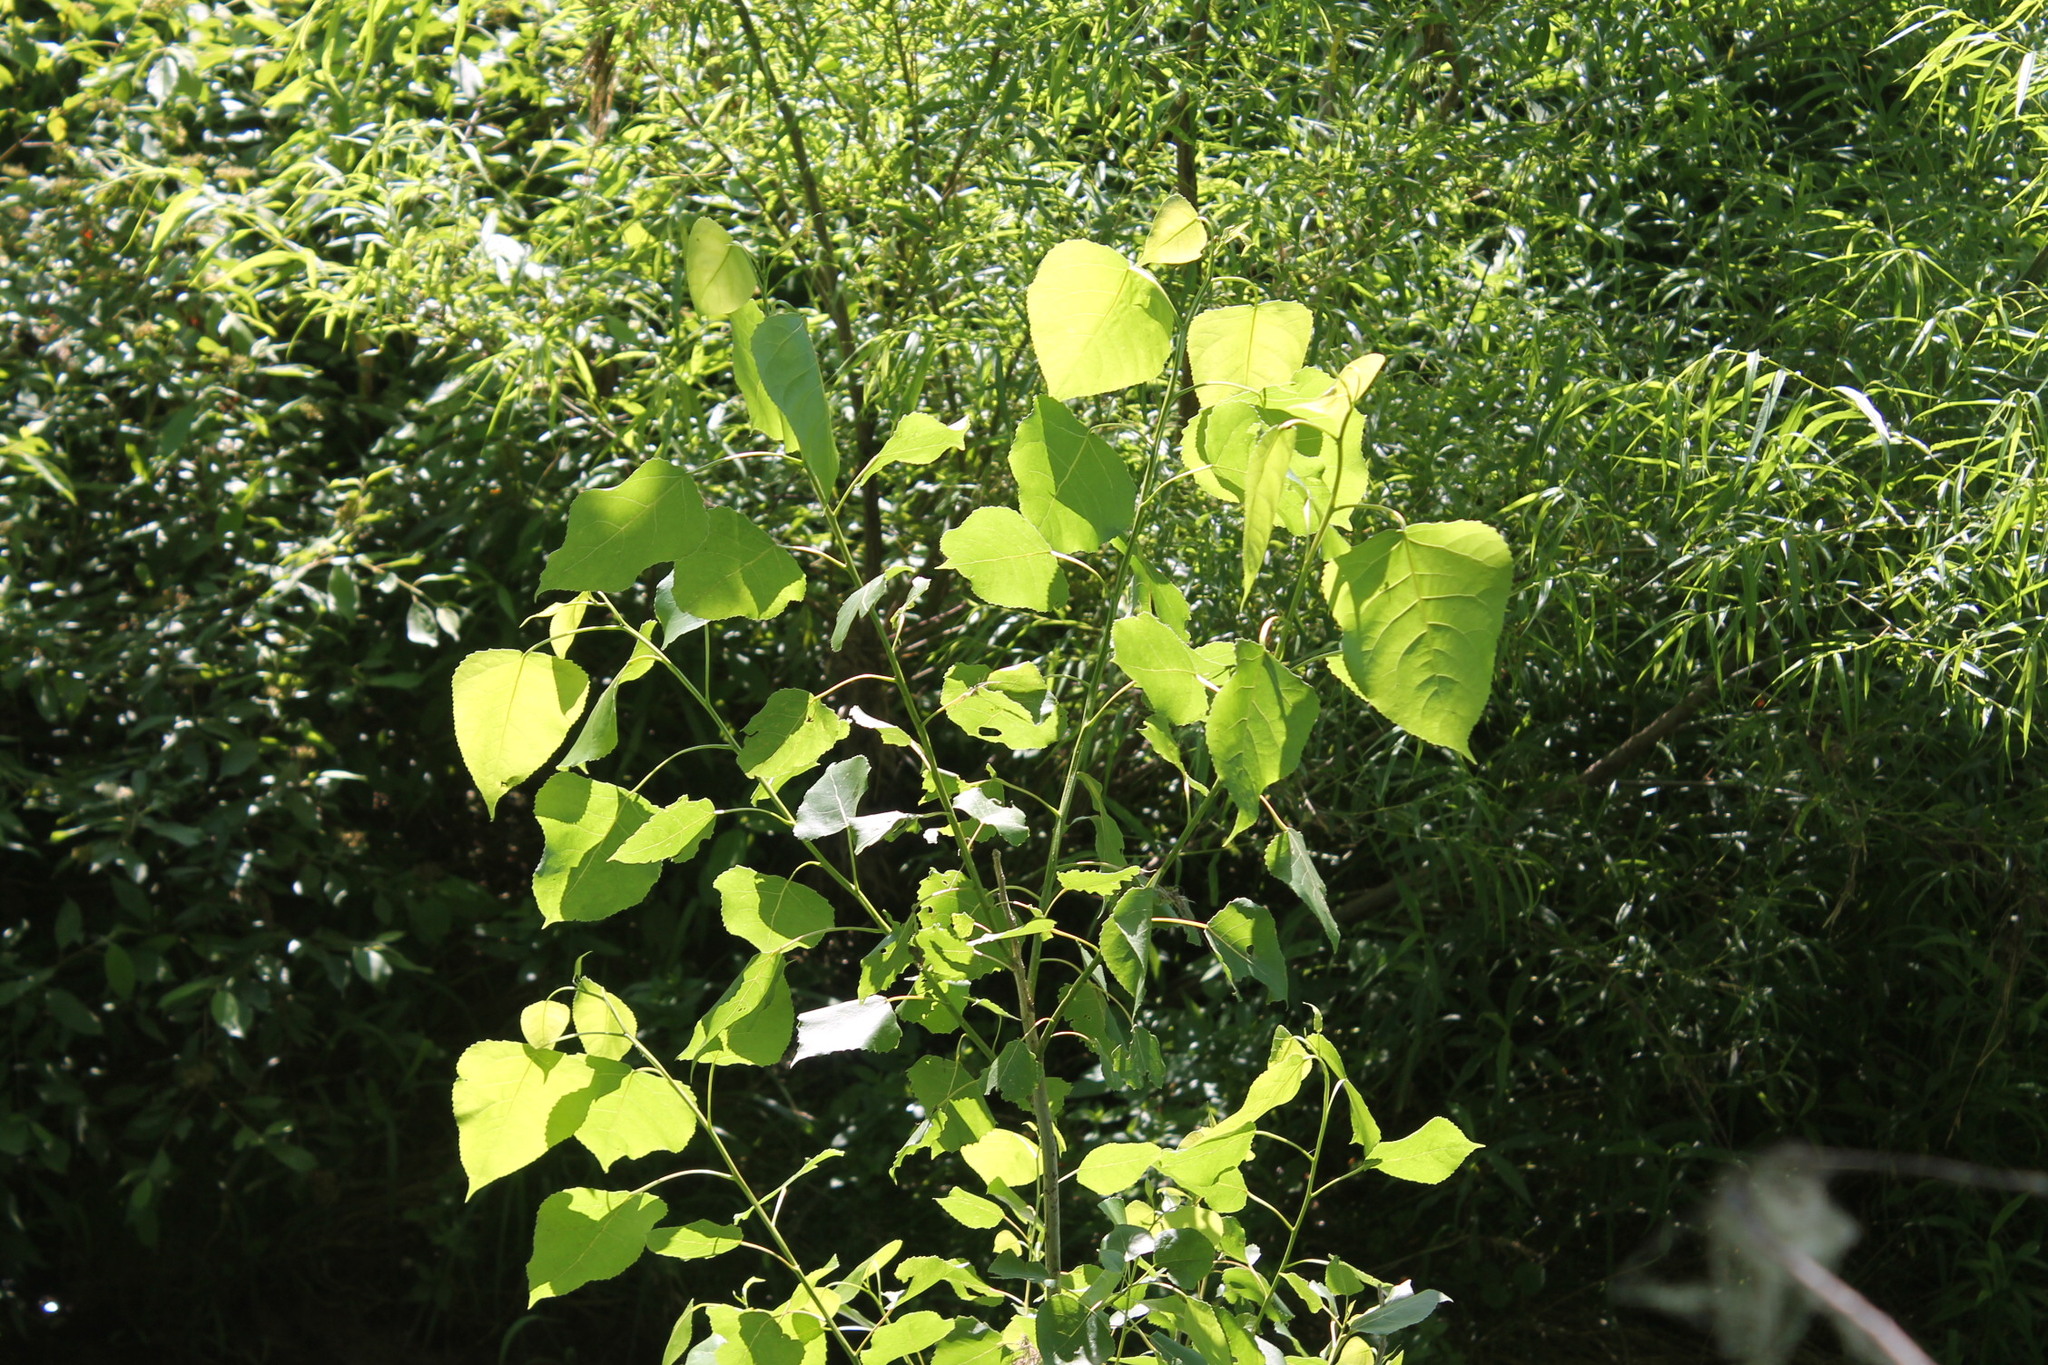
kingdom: Plantae
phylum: Tracheophyta
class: Magnoliopsida
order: Malpighiales
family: Salicaceae
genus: Populus
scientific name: Populus deltoides
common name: Eastern cottonwood
